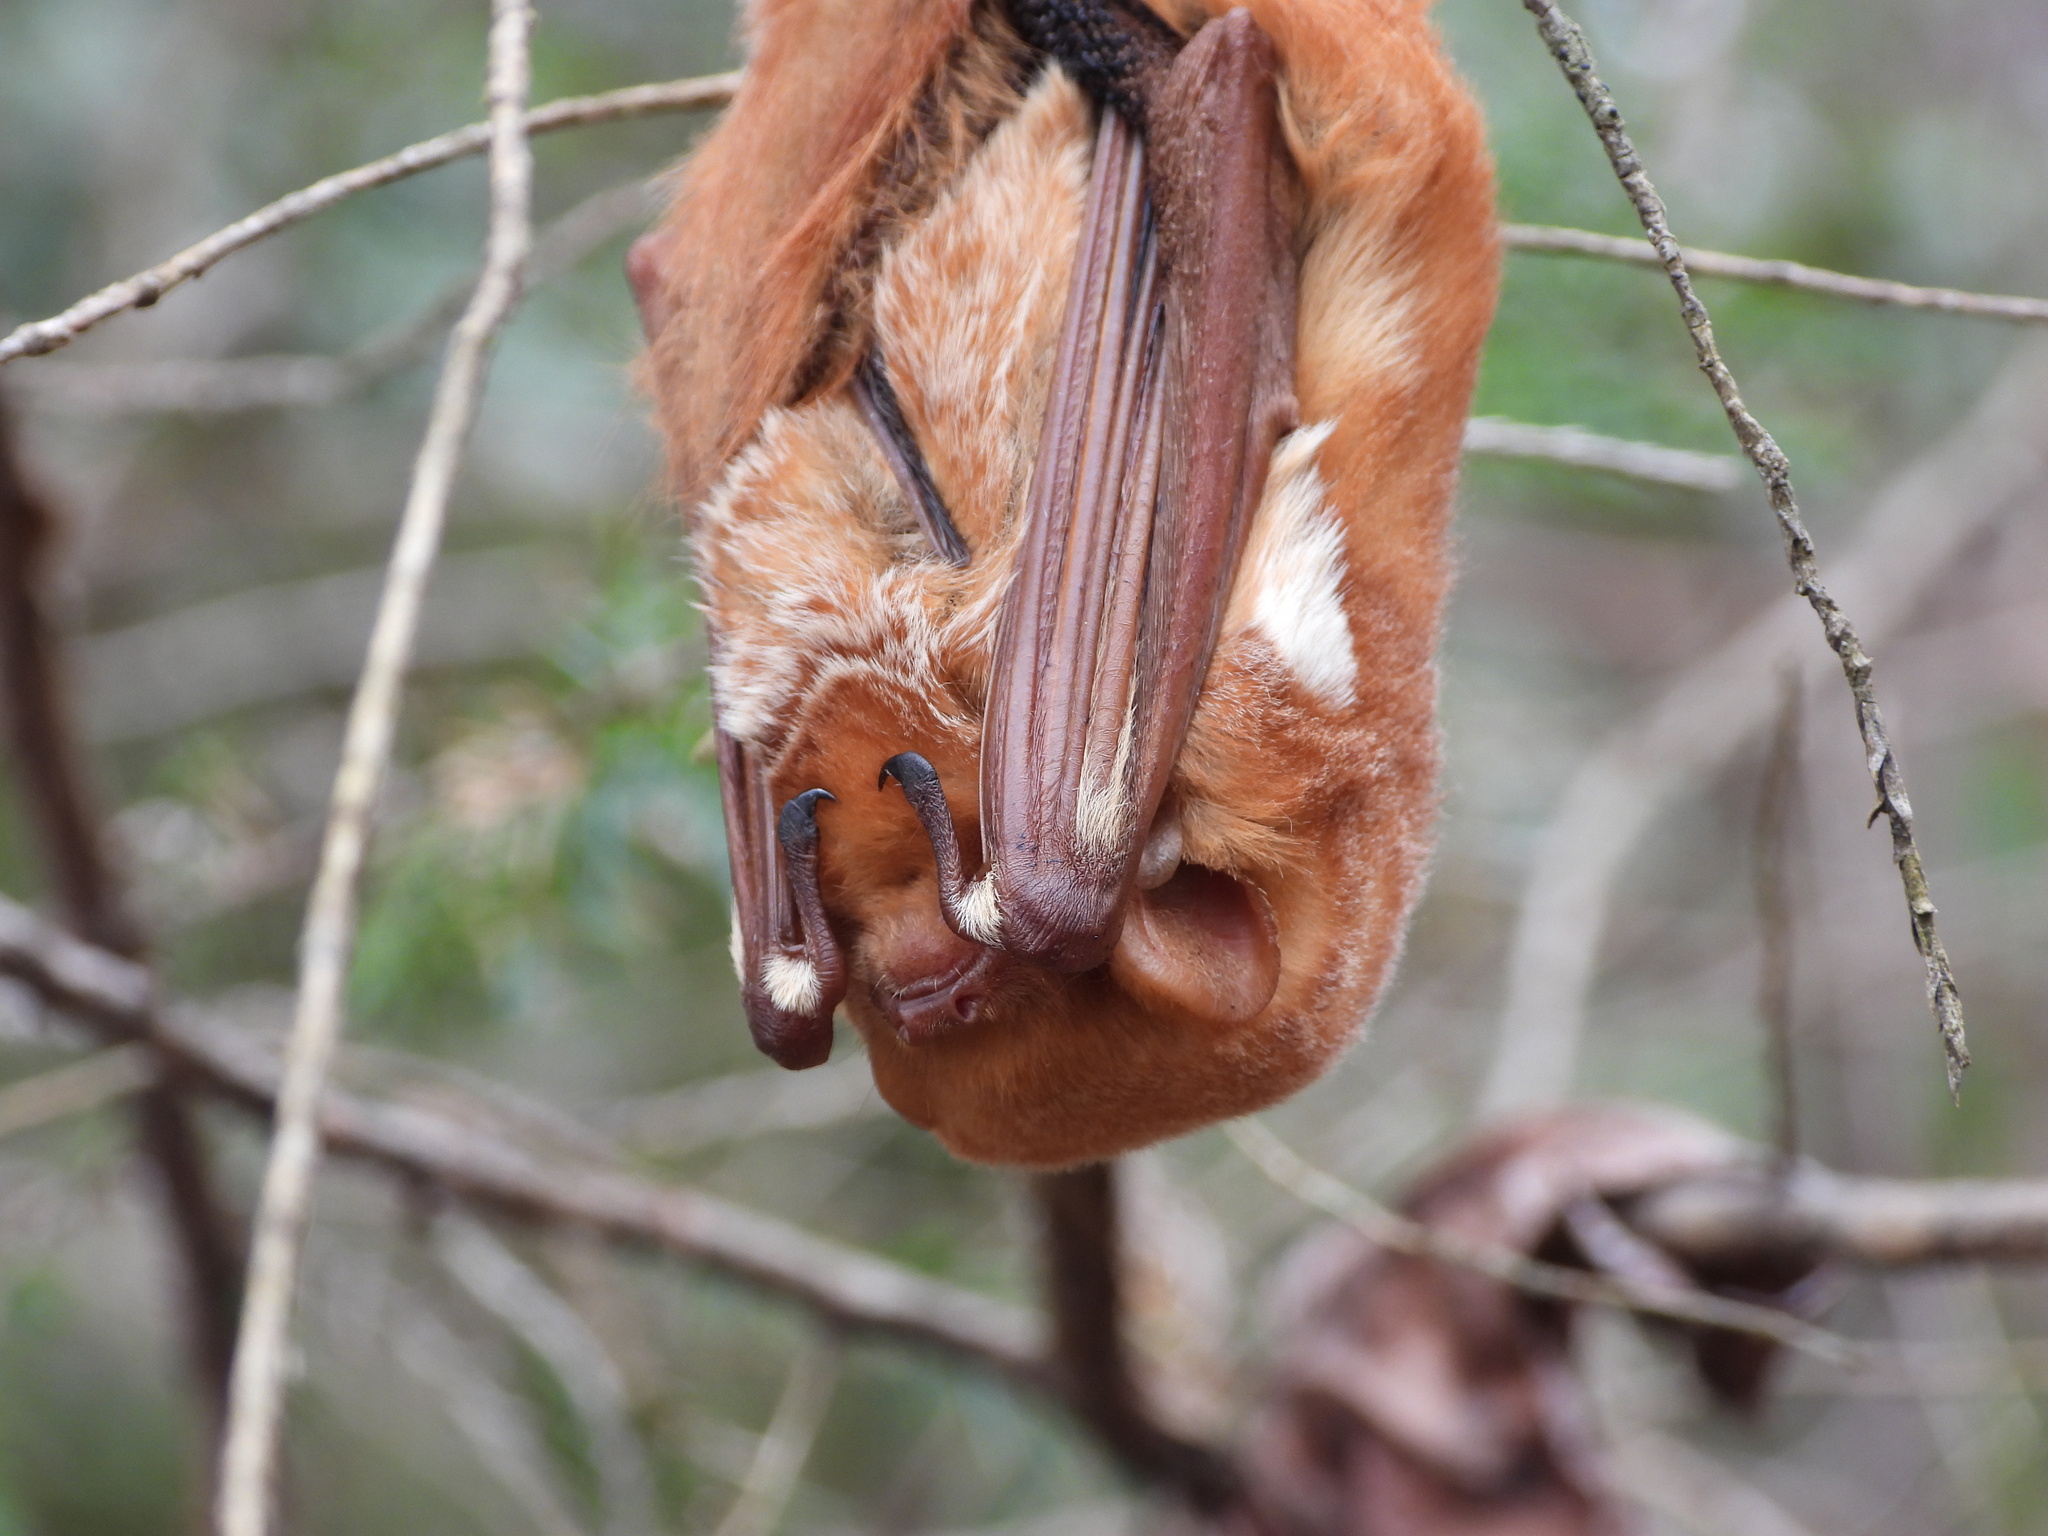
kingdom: Animalia
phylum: Chordata
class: Mammalia
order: Chiroptera
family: Vespertilionidae
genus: Lasiurus
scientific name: Lasiurus borealis
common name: Eastern red bat
